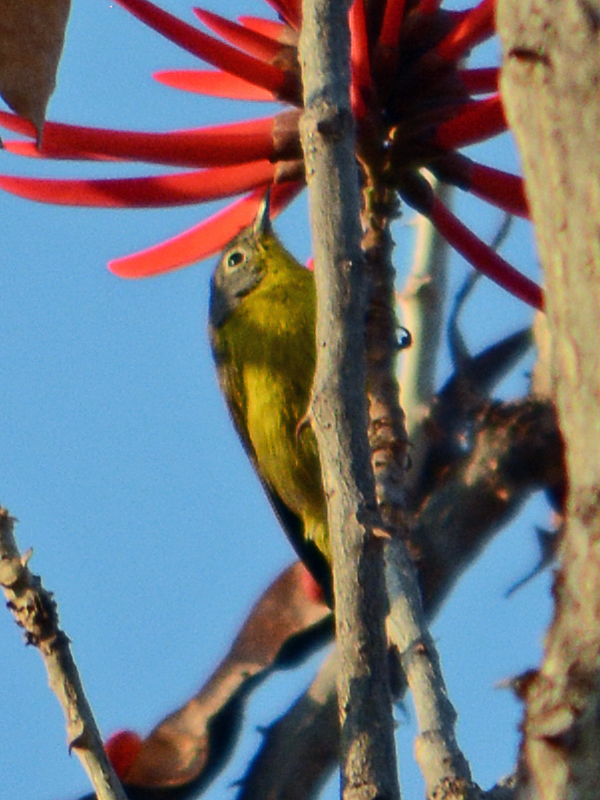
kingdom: Animalia
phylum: Chordata
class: Aves
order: Passeriformes
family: Parulidae
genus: Leiothlypis
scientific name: Leiothlypis ruficapilla
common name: Nashville warbler
